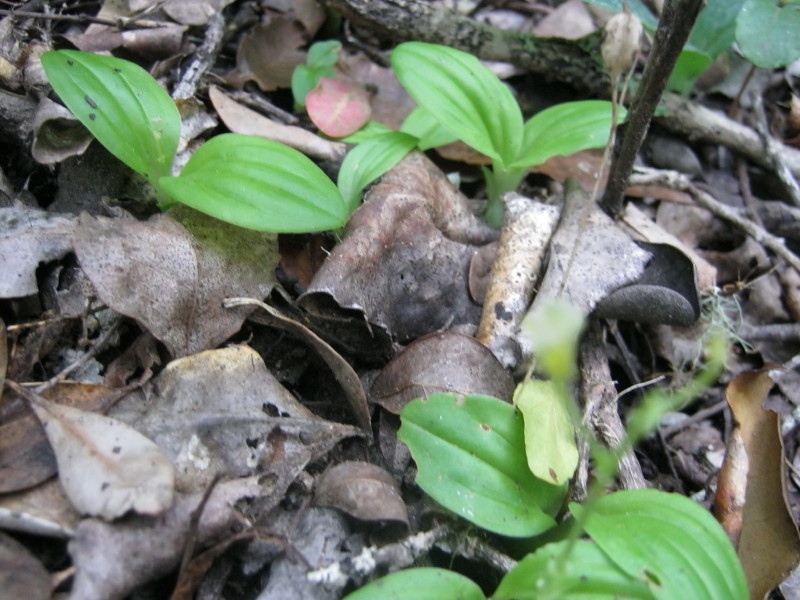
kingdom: Plantae
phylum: Tracheophyta
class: Liliopsida
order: Asparagales
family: Orchidaceae
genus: Liparis
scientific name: Liparis remota
